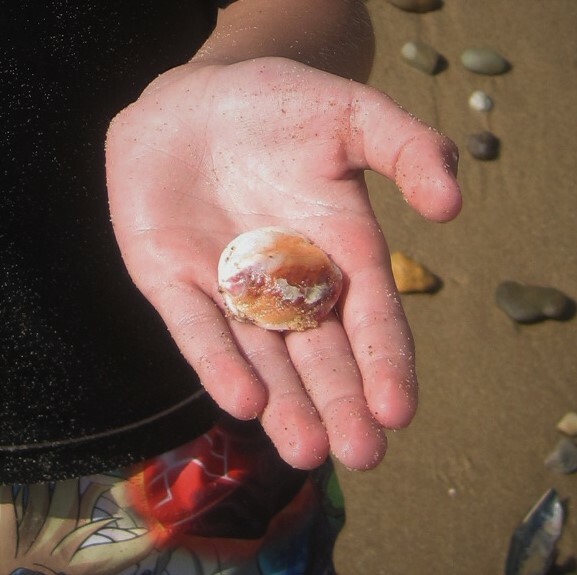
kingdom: Animalia
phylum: Mollusca
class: Bivalvia
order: Venerida
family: Chamidae
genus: Chama
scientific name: Chama arcana
